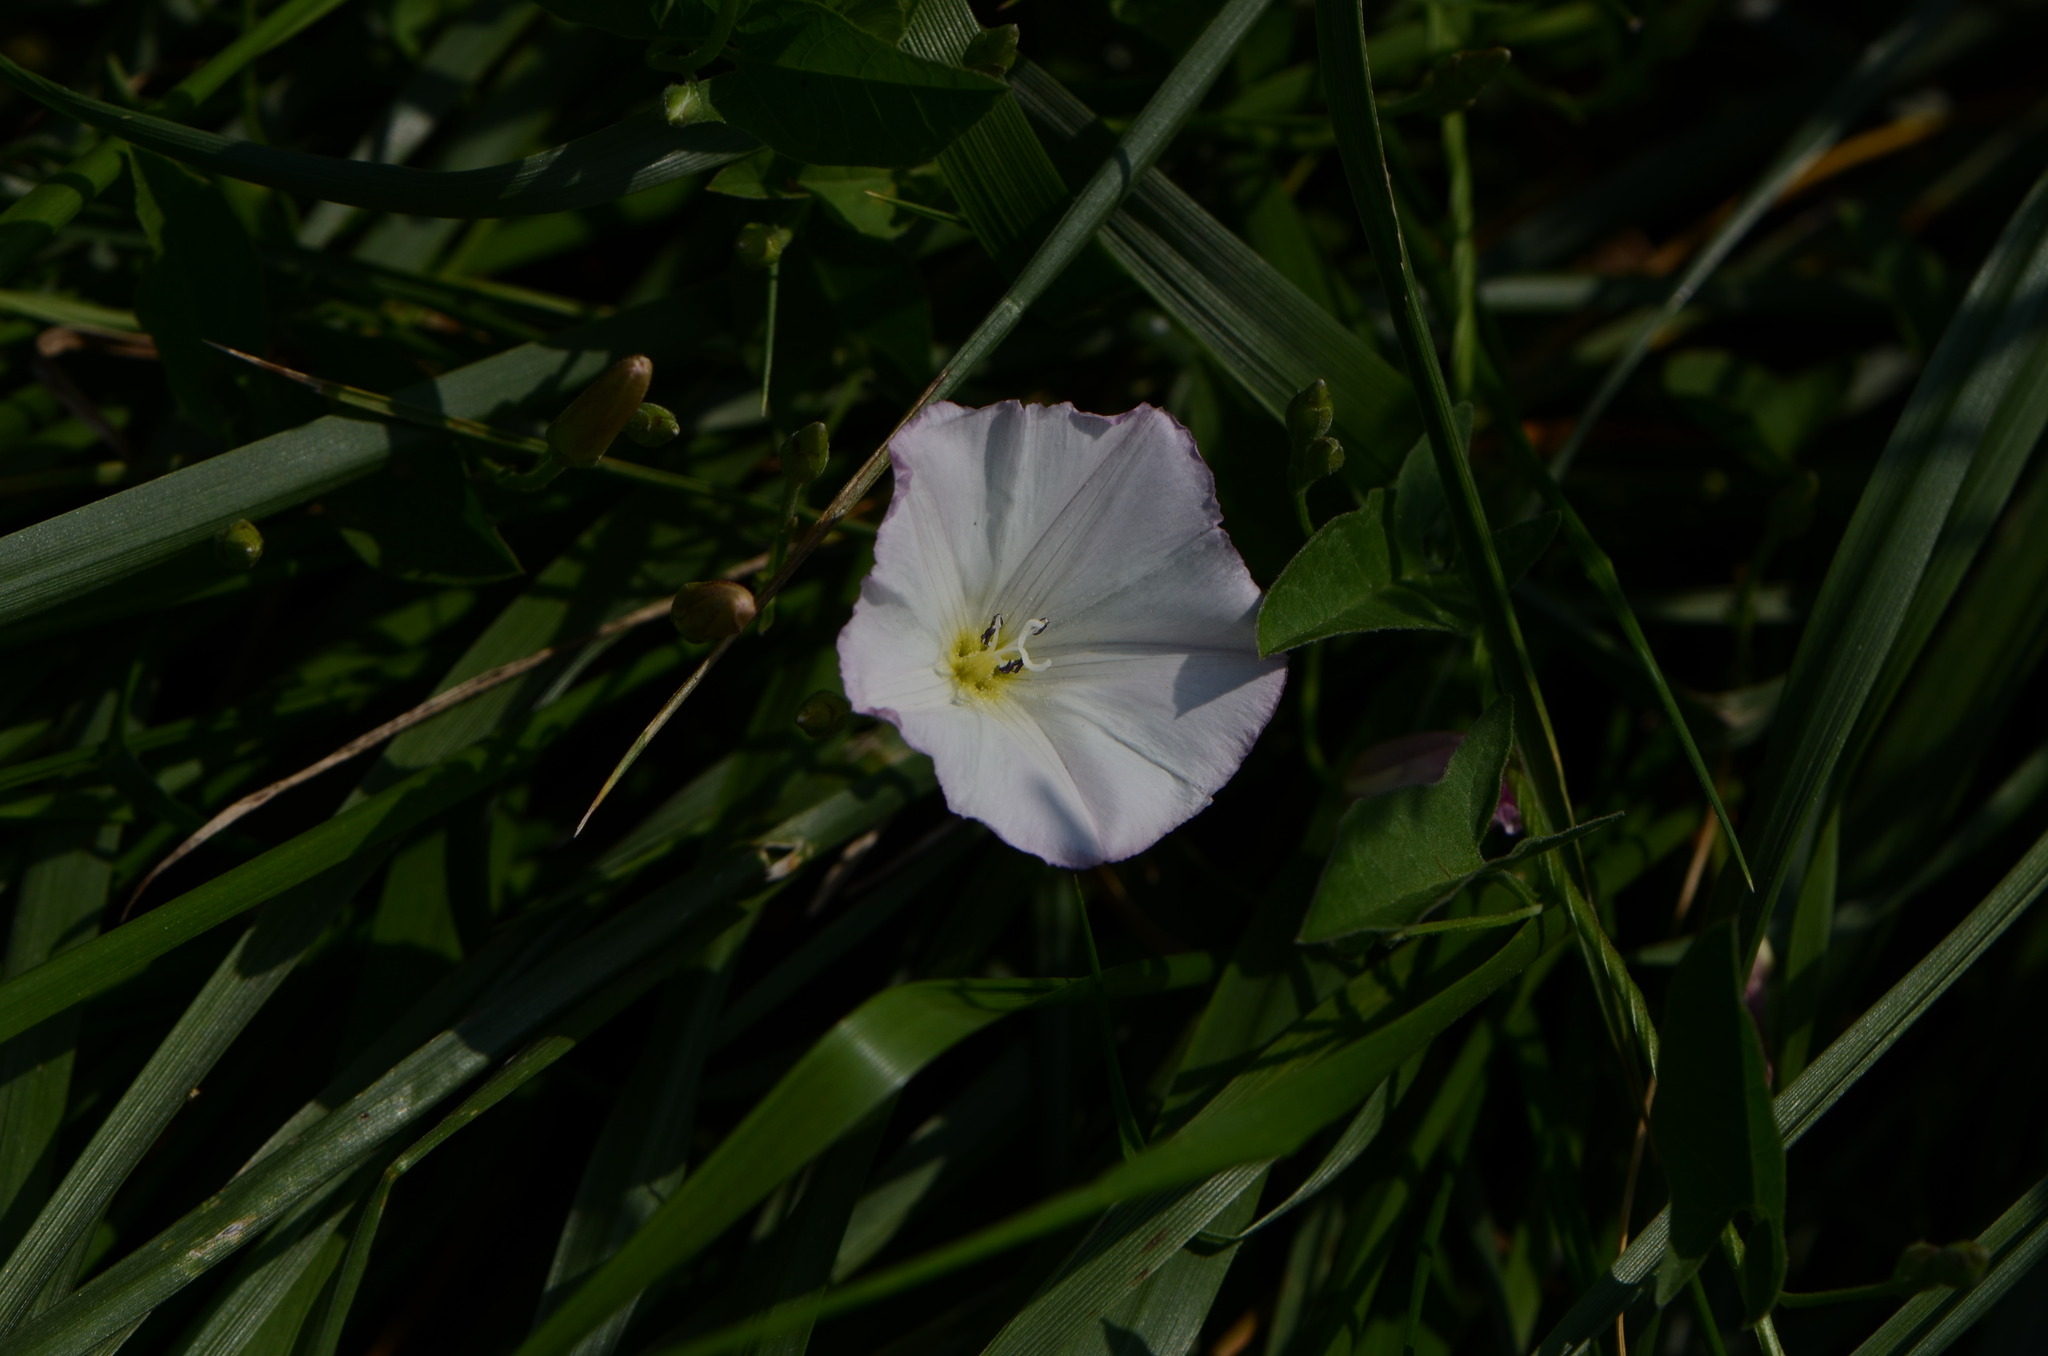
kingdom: Plantae
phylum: Tracheophyta
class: Magnoliopsida
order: Solanales
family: Convolvulaceae
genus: Convolvulus
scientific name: Convolvulus arvensis
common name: Field bindweed
